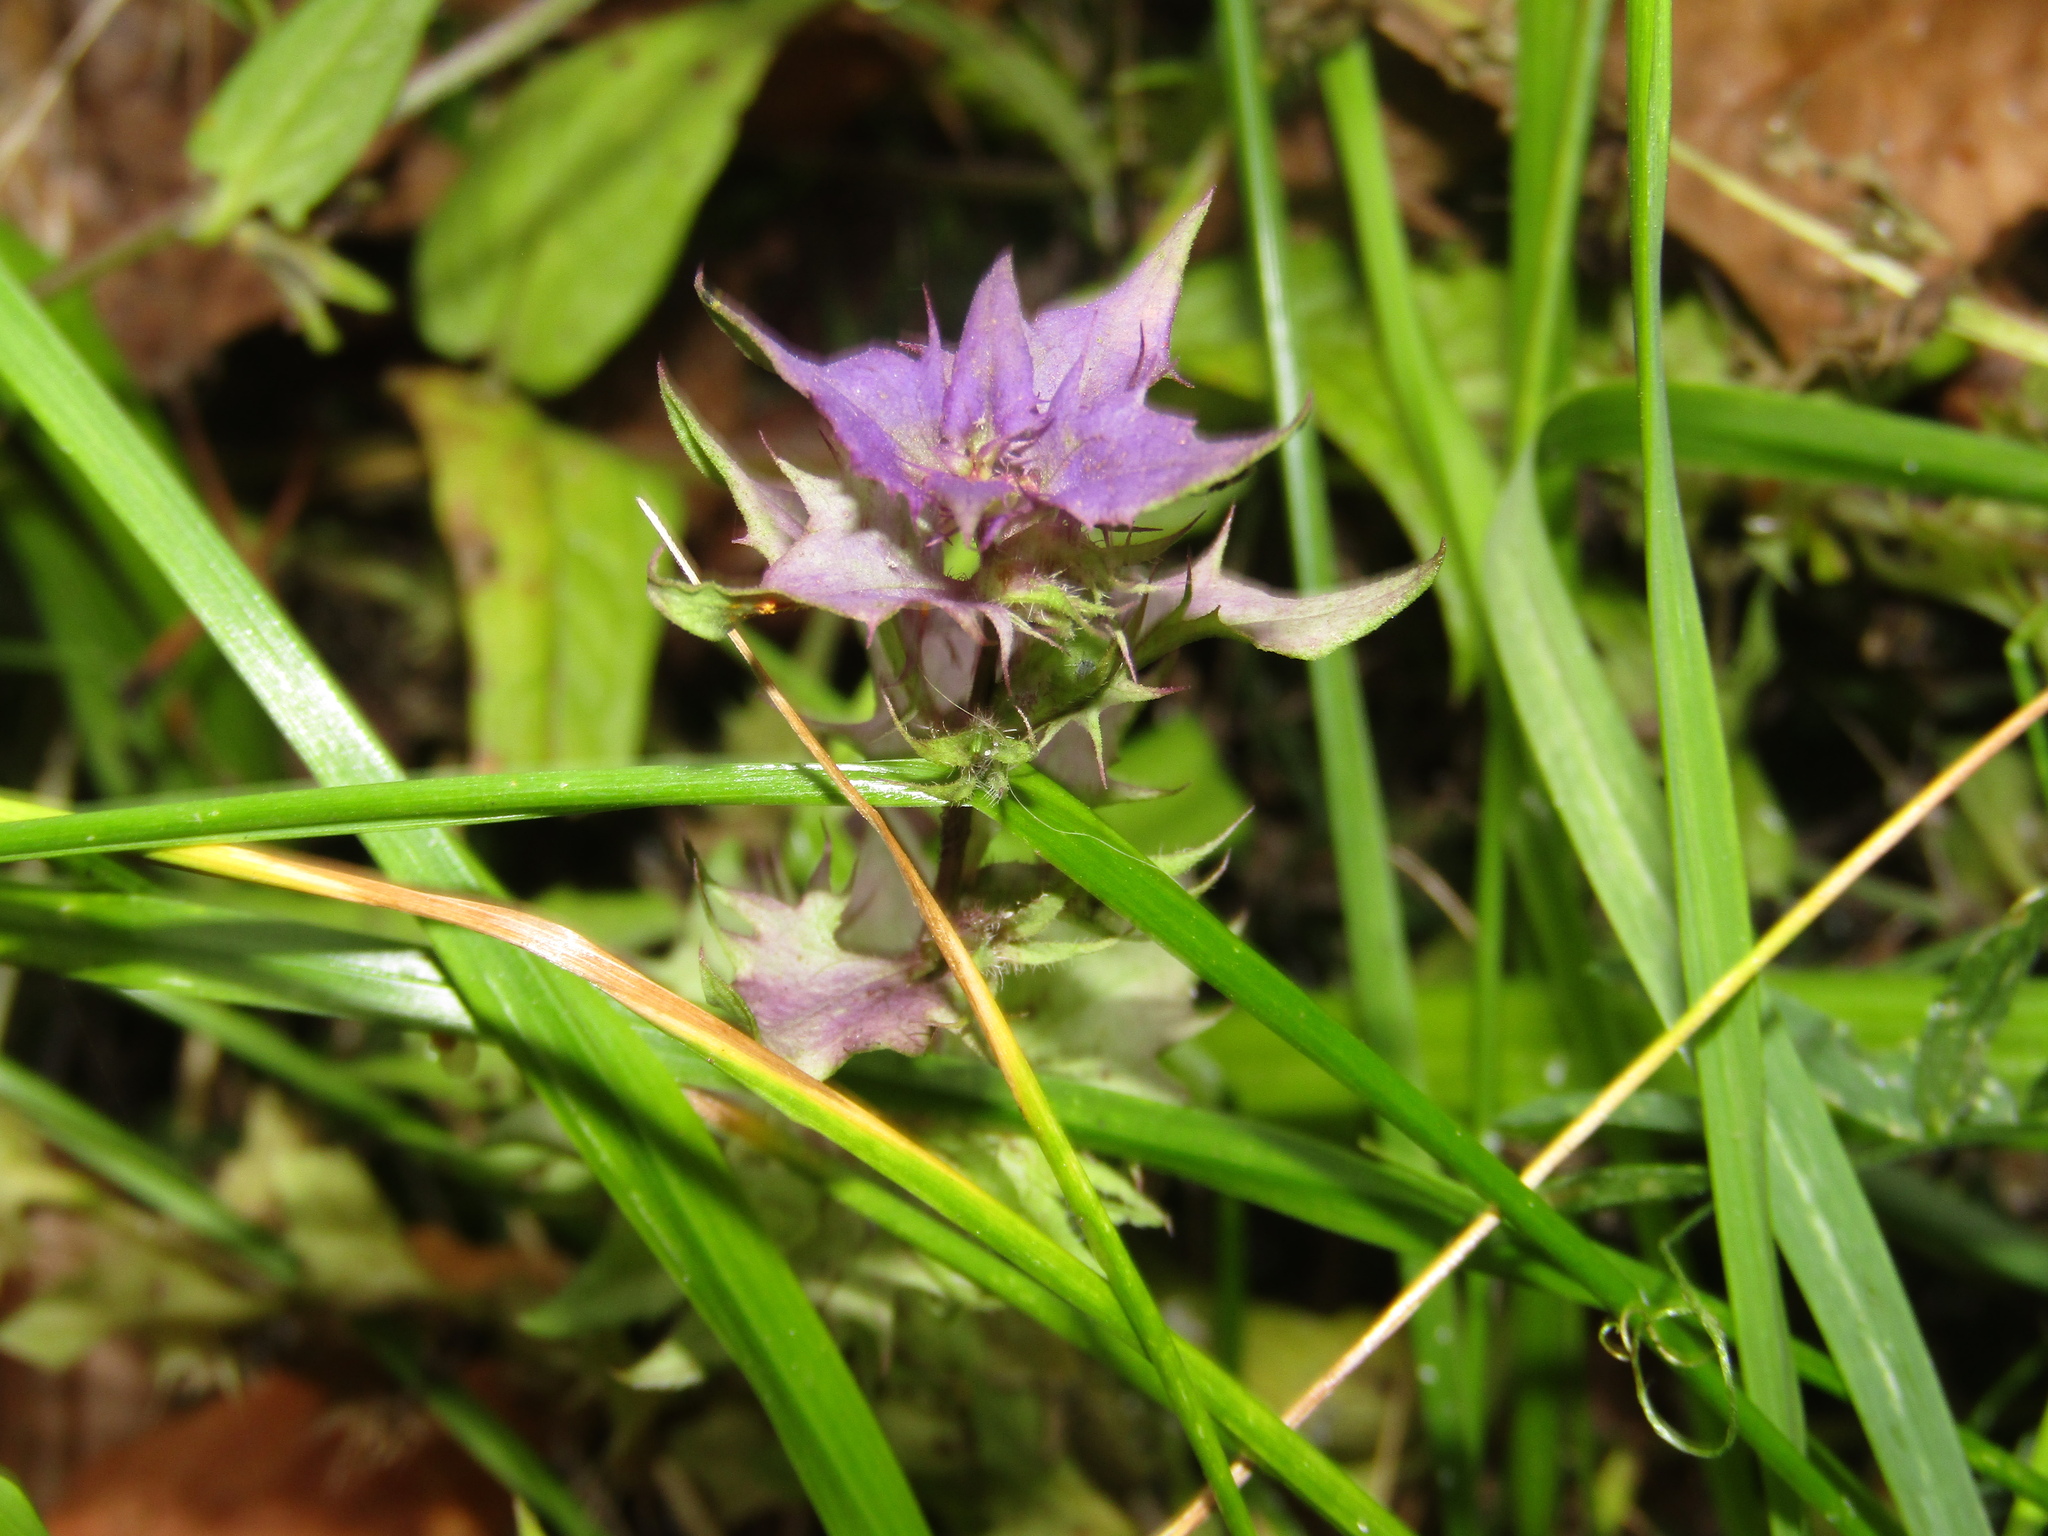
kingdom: Plantae
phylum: Tracheophyta
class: Magnoliopsida
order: Lamiales
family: Orobanchaceae
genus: Melampyrum
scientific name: Melampyrum nemorosum
